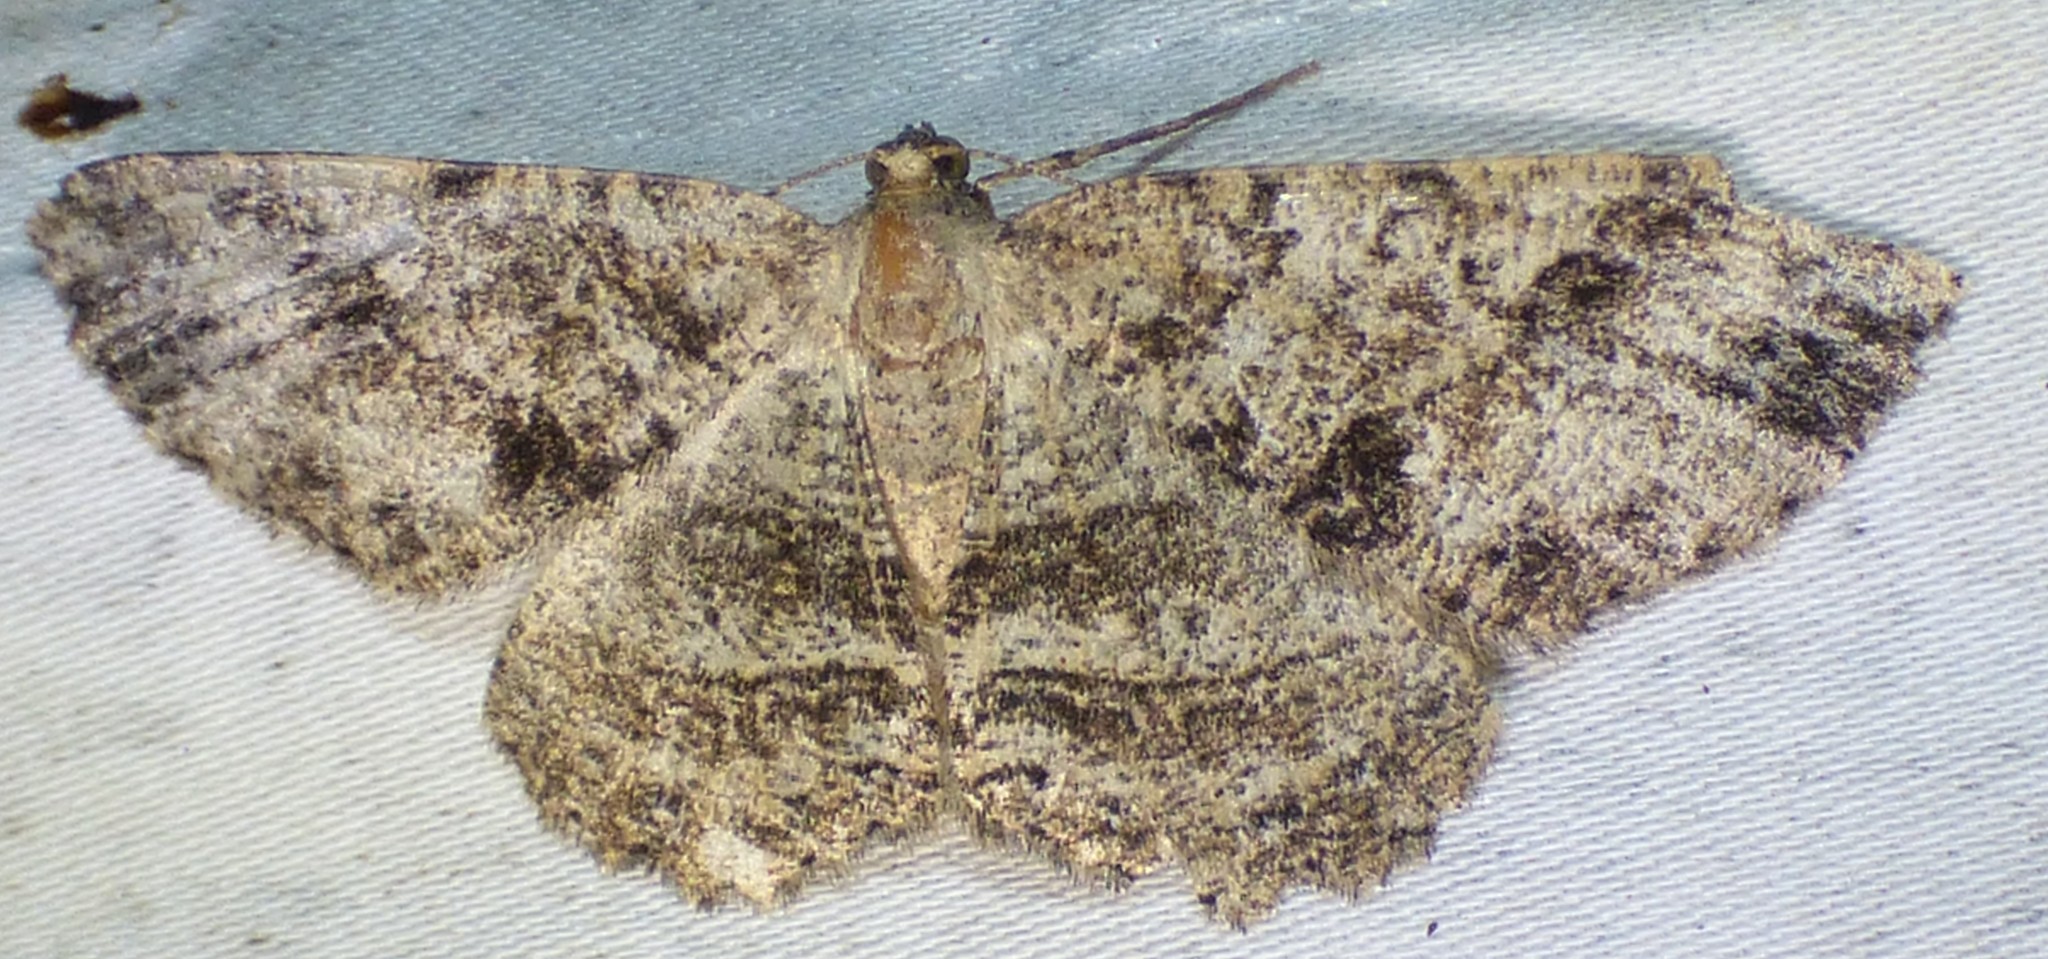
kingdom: Animalia
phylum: Arthropoda
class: Insecta
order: Lepidoptera
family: Geometridae
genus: Melanolophia
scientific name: Melanolophia canadaria
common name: Canadian melanolophia
